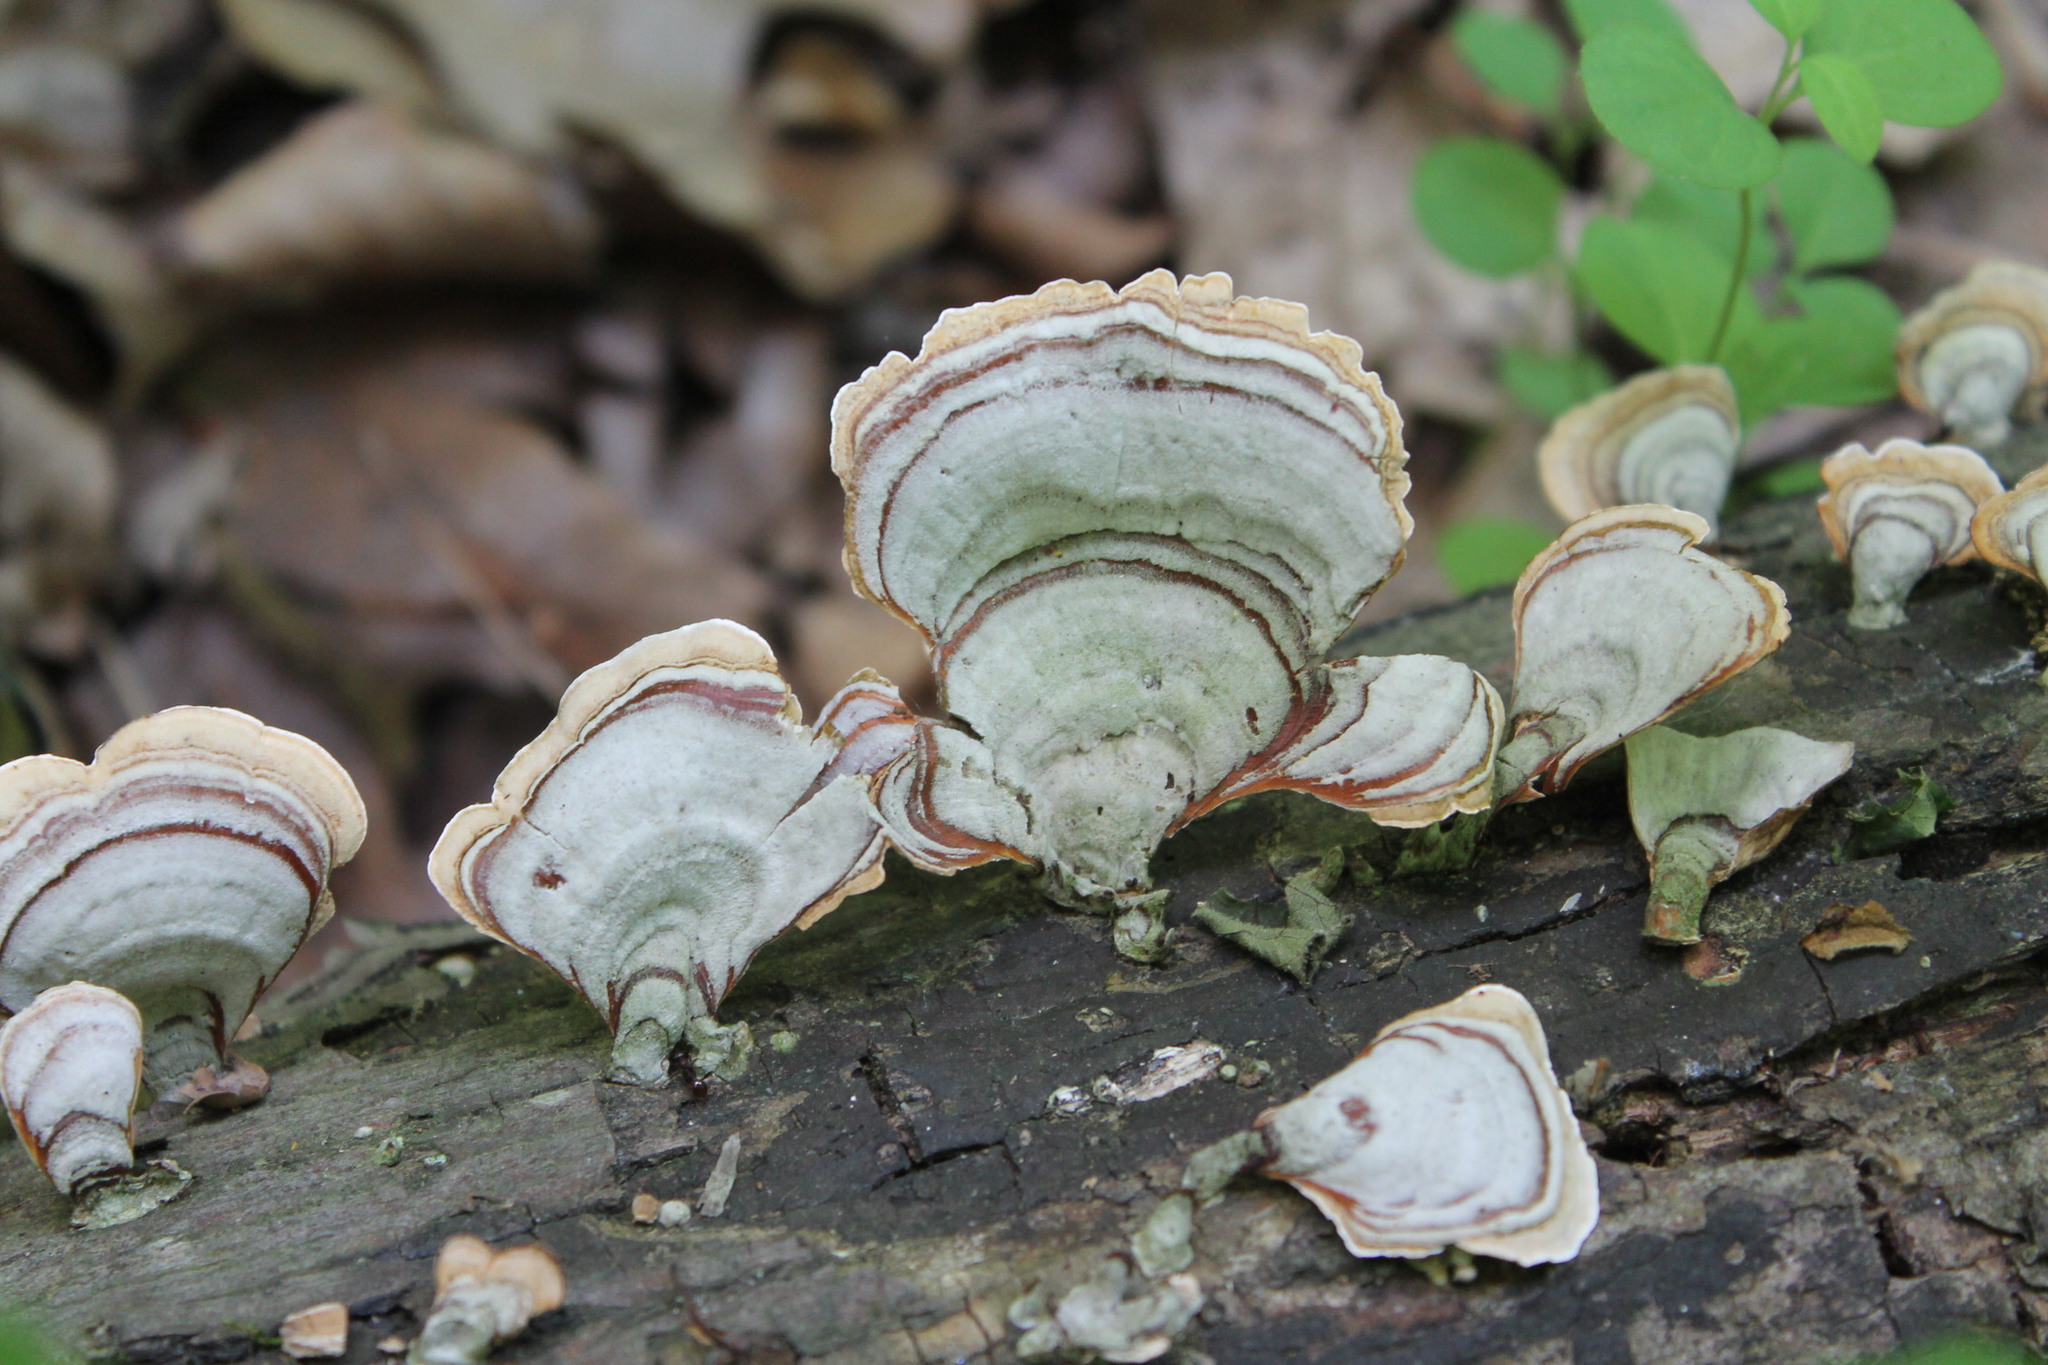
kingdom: Fungi
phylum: Basidiomycota
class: Agaricomycetes
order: Russulales
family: Stereaceae
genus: Stereum
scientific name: Stereum lobatum
